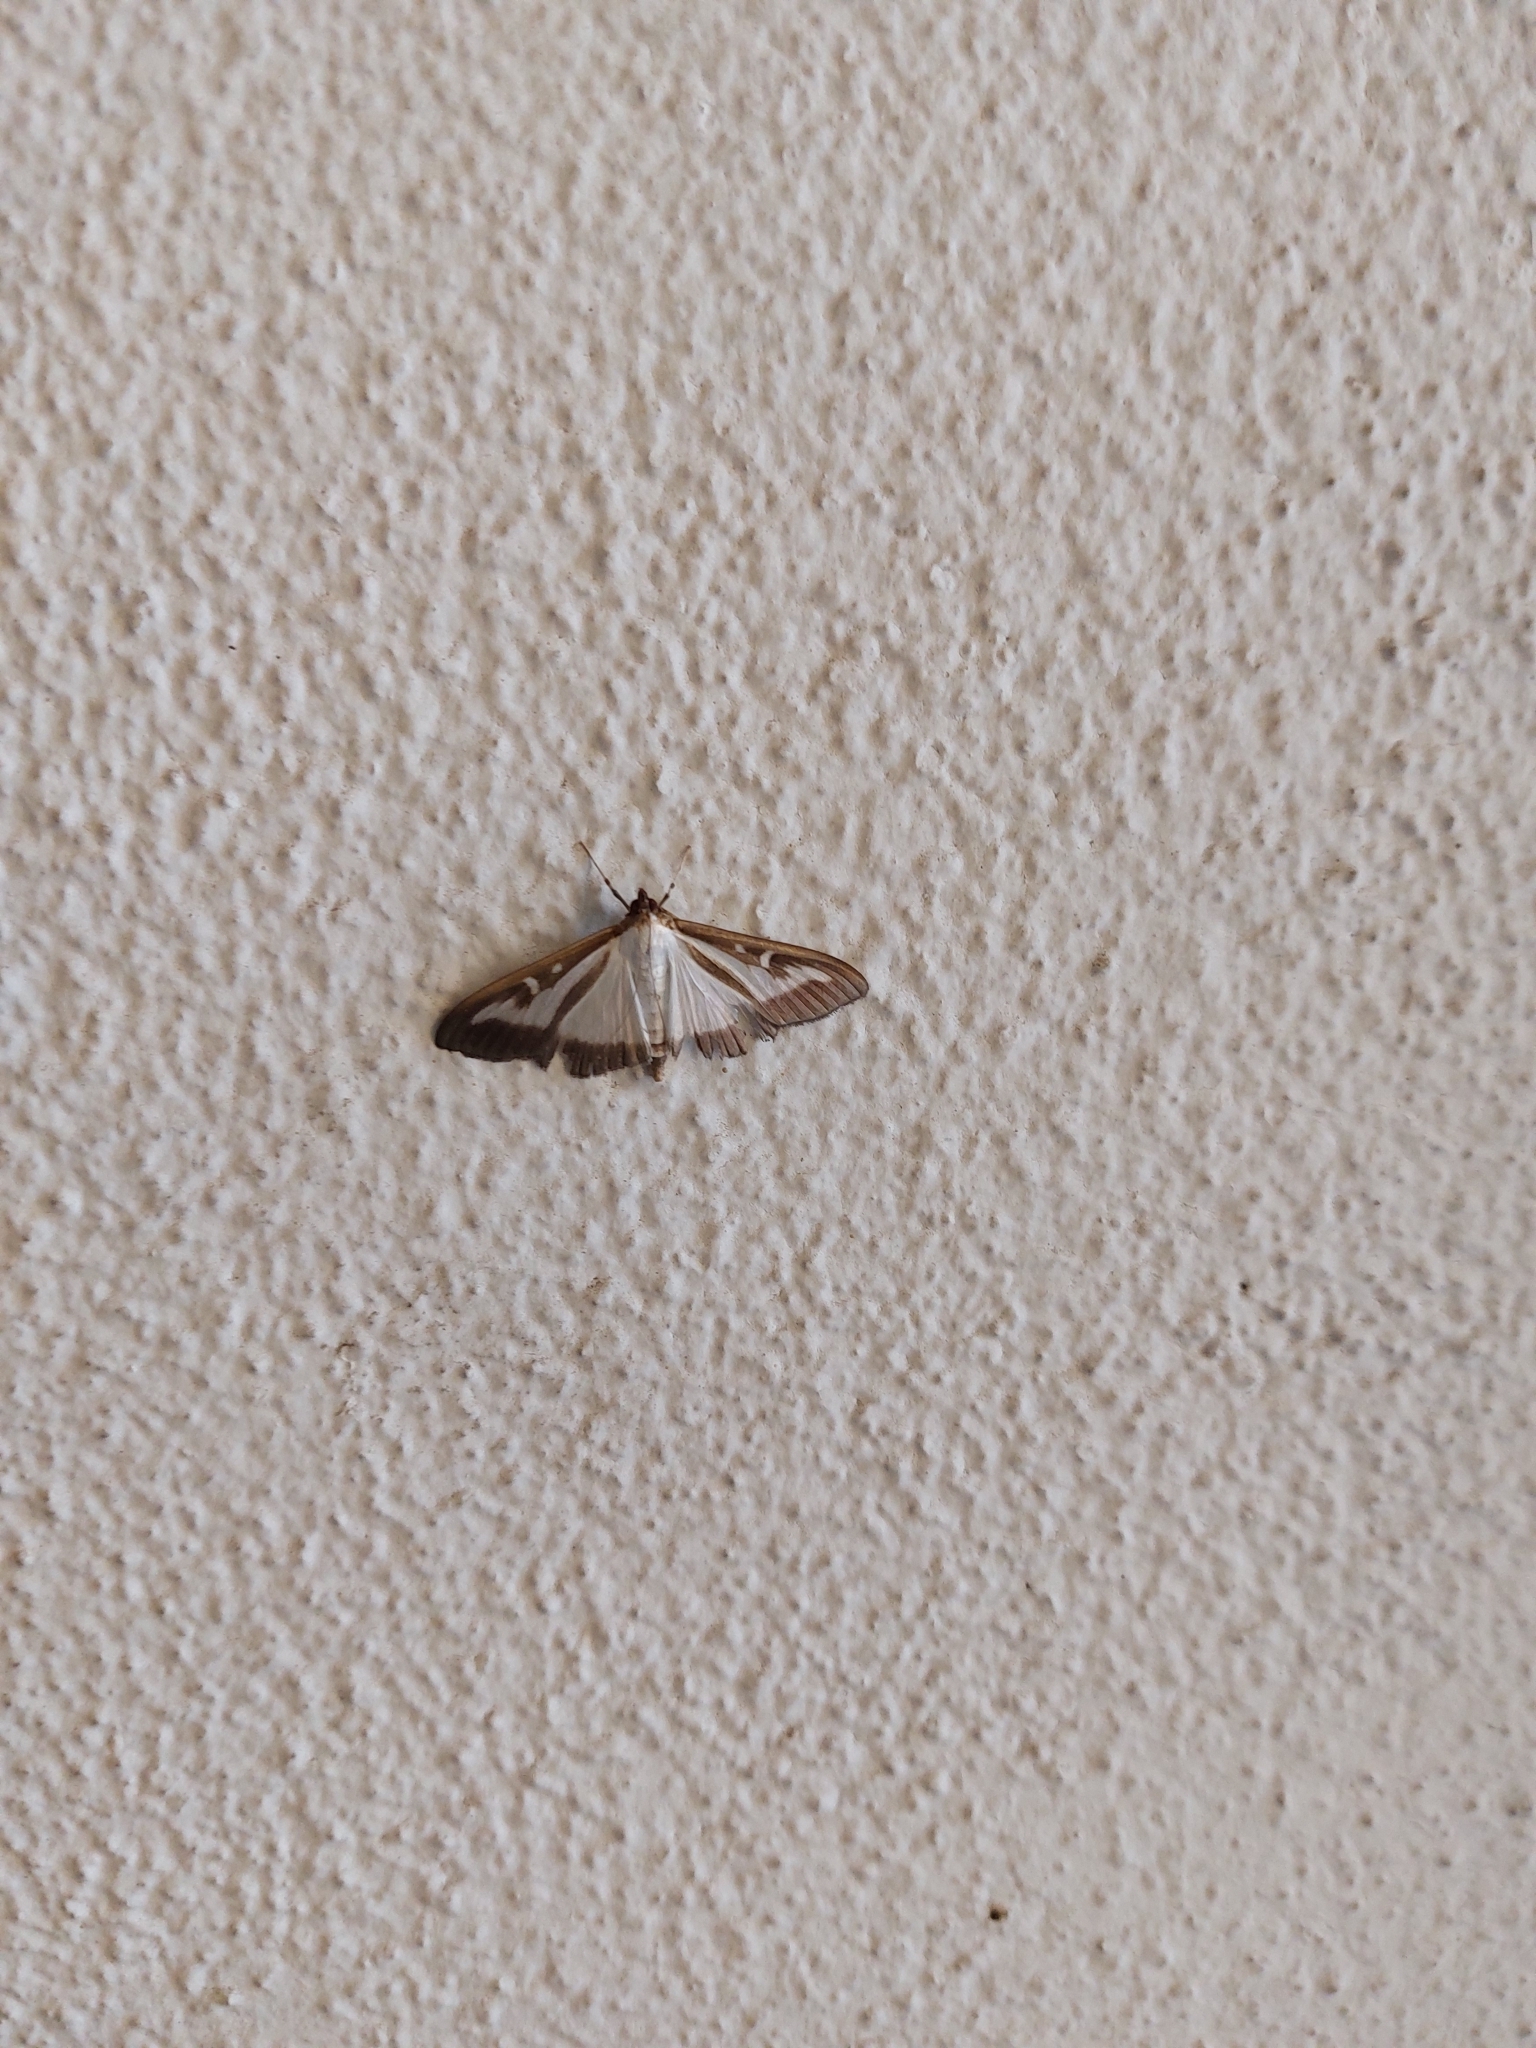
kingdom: Animalia
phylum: Arthropoda
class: Insecta
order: Lepidoptera
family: Crambidae
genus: Cydalima
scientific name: Cydalima perspectalis
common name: Box tree moth
